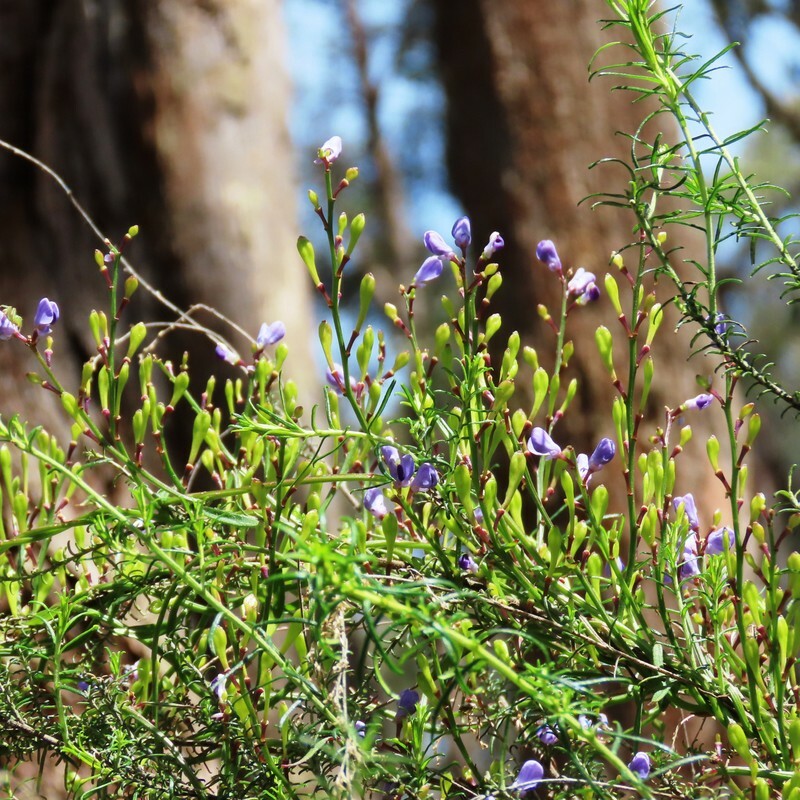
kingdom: Plantae
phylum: Tracheophyta
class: Magnoliopsida
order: Fabales
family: Polygalaceae
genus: Comesperma
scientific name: Comesperma volubile
